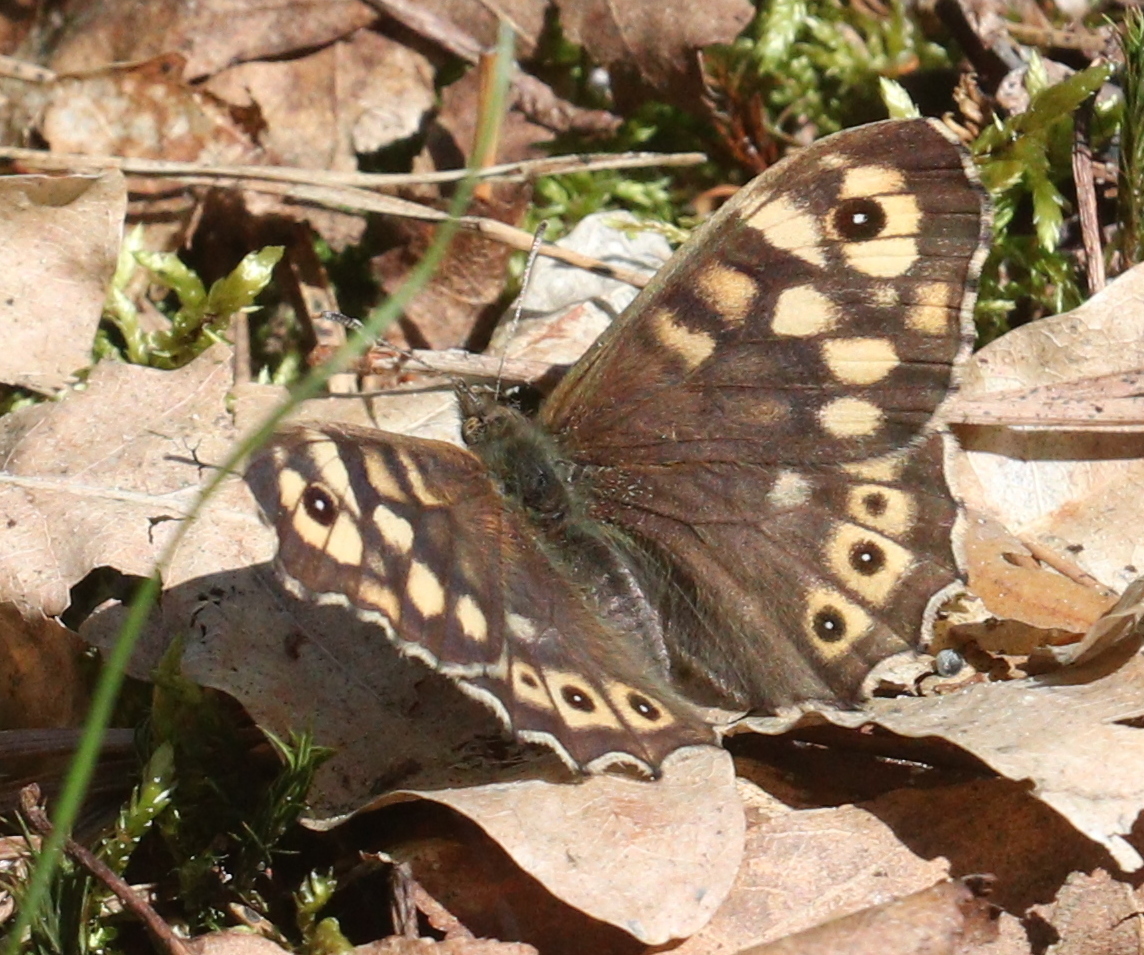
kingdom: Animalia
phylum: Arthropoda
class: Insecta
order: Lepidoptera
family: Nymphalidae
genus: Pararge
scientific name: Pararge aegeria
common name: Speckled wood
